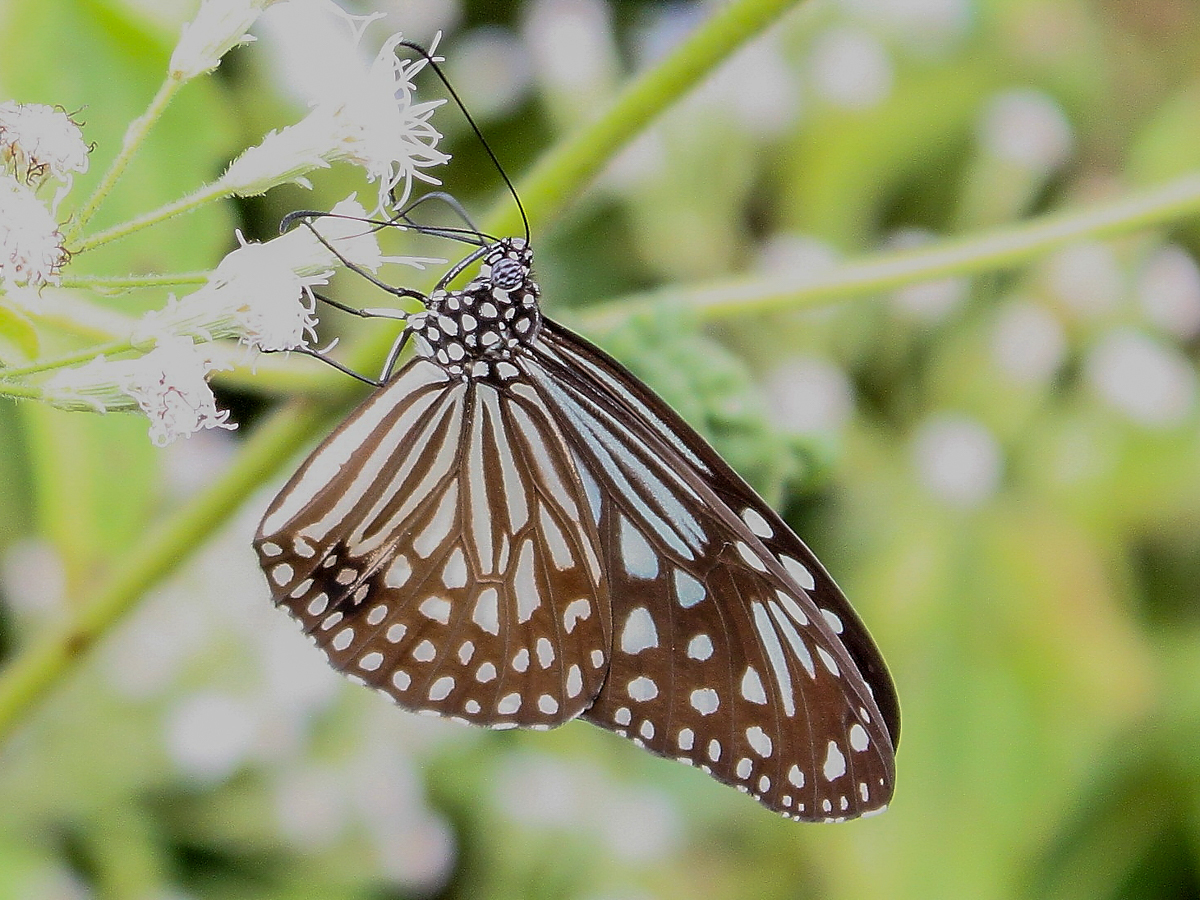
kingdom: Animalia
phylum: Arthropoda
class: Insecta
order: Lepidoptera
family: Nymphalidae
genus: Parantica
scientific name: Parantica agleoides
